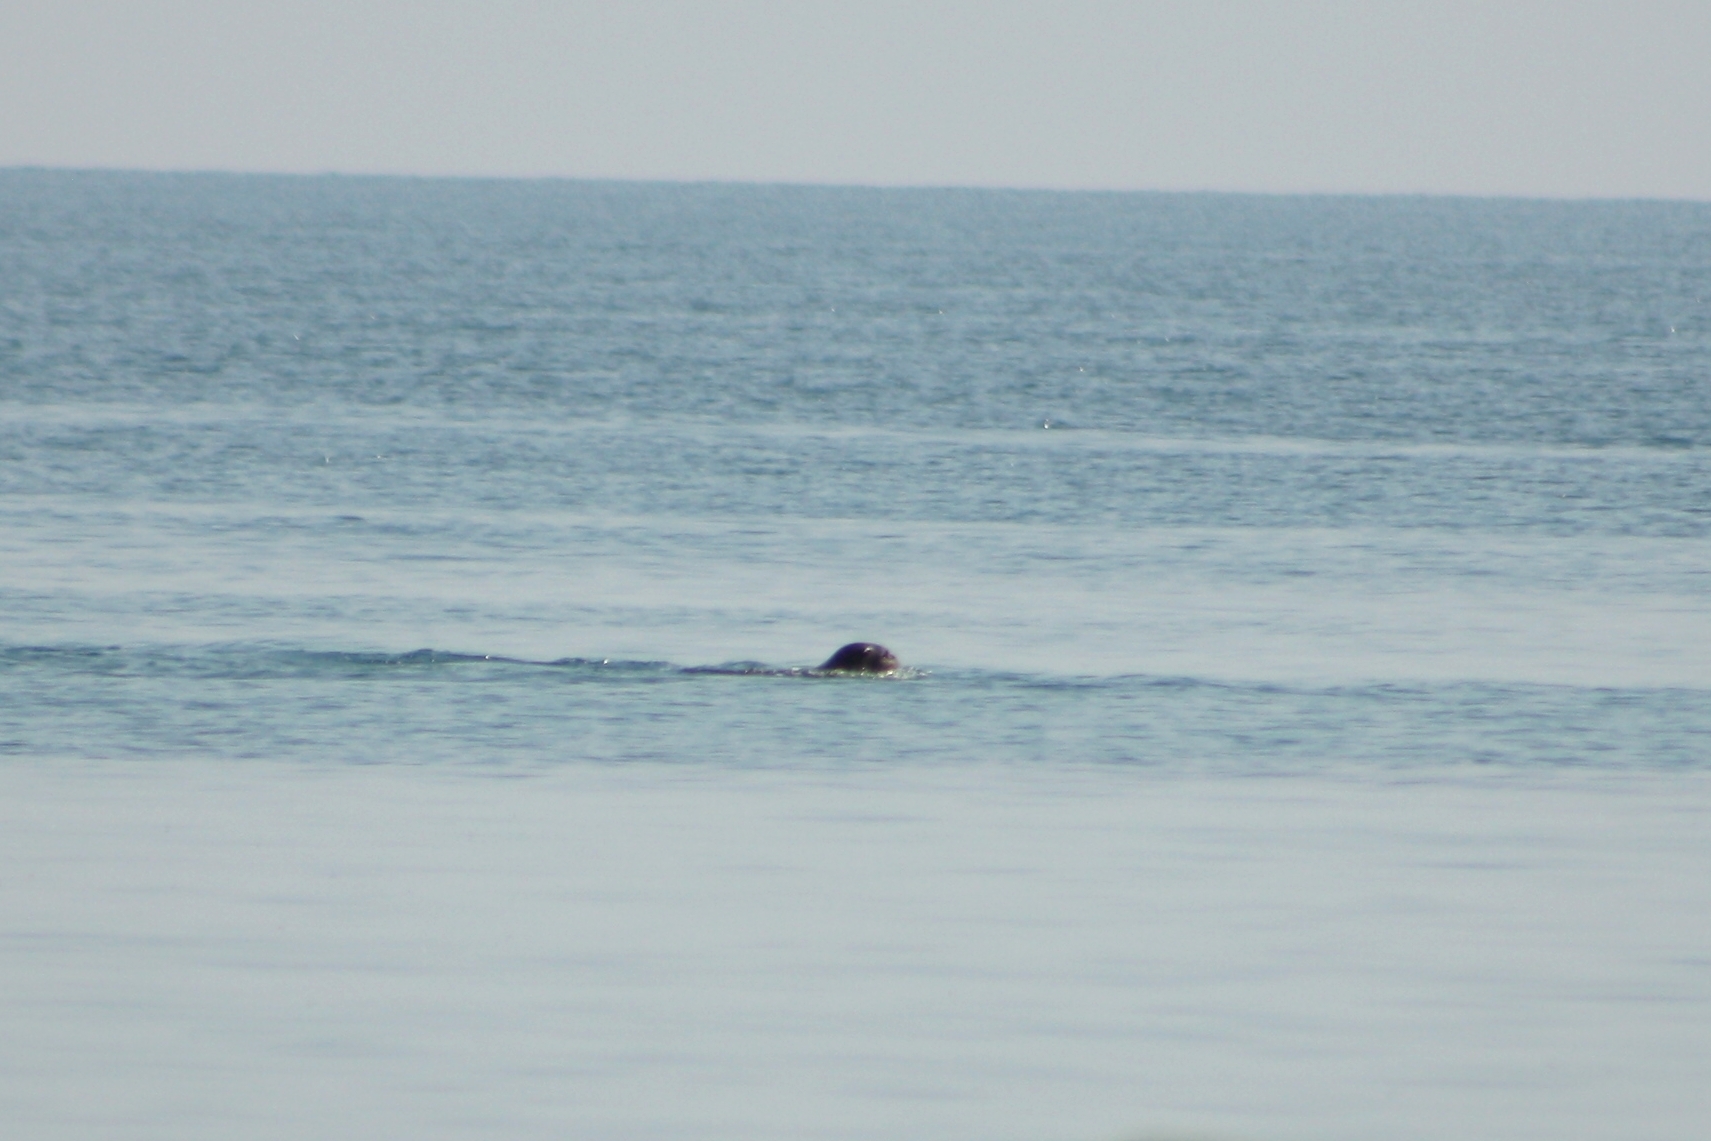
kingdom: Animalia
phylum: Chordata
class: Mammalia
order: Carnivora
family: Phocidae
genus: Monachus
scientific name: Monachus monachus
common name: Mediterranean monk seal
